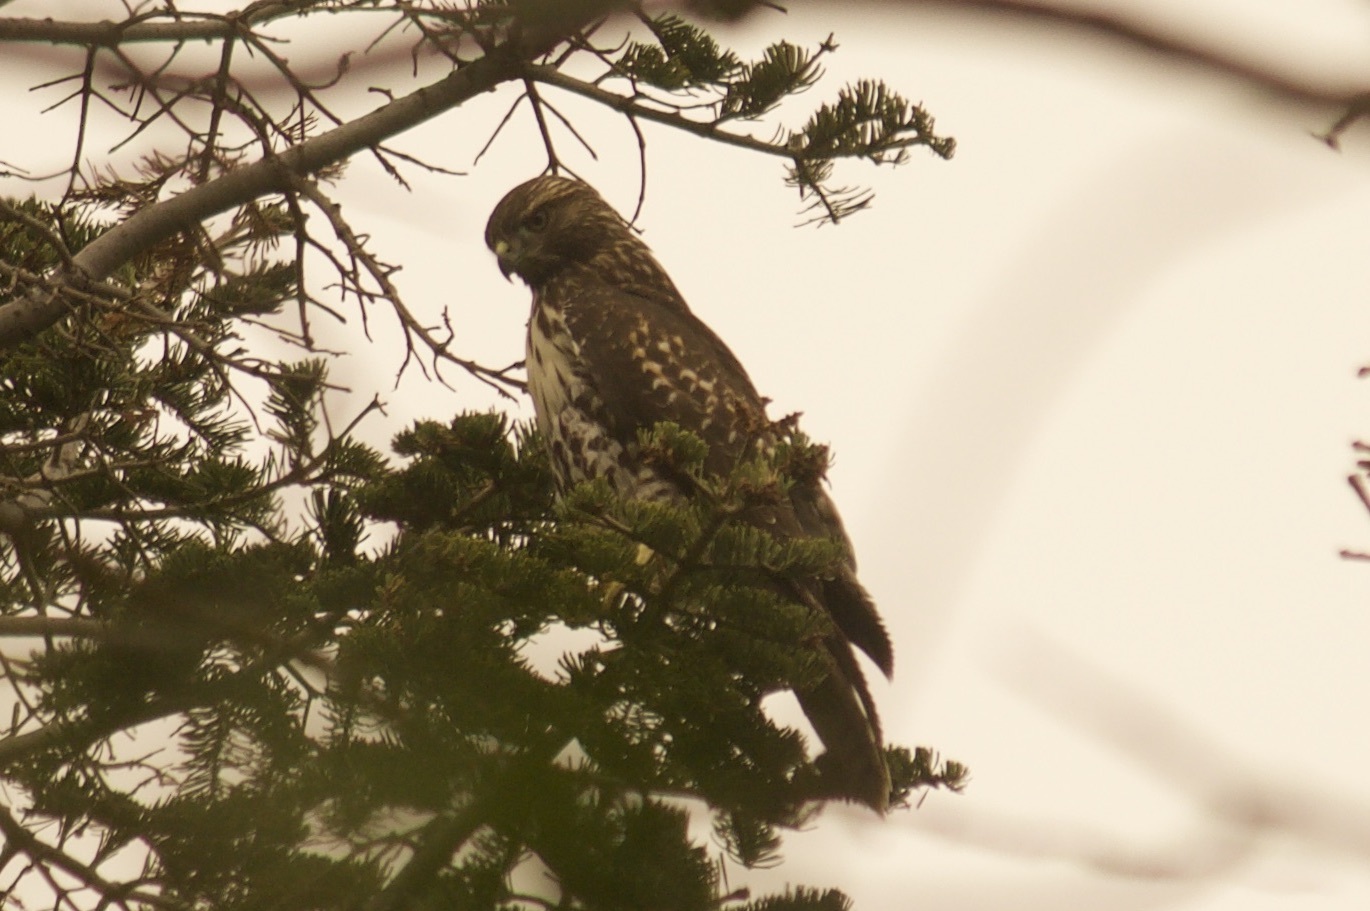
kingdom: Animalia
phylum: Chordata
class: Aves
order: Accipitriformes
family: Accipitridae
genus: Buteo
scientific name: Buteo jamaicensis
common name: Red-tailed hawk
